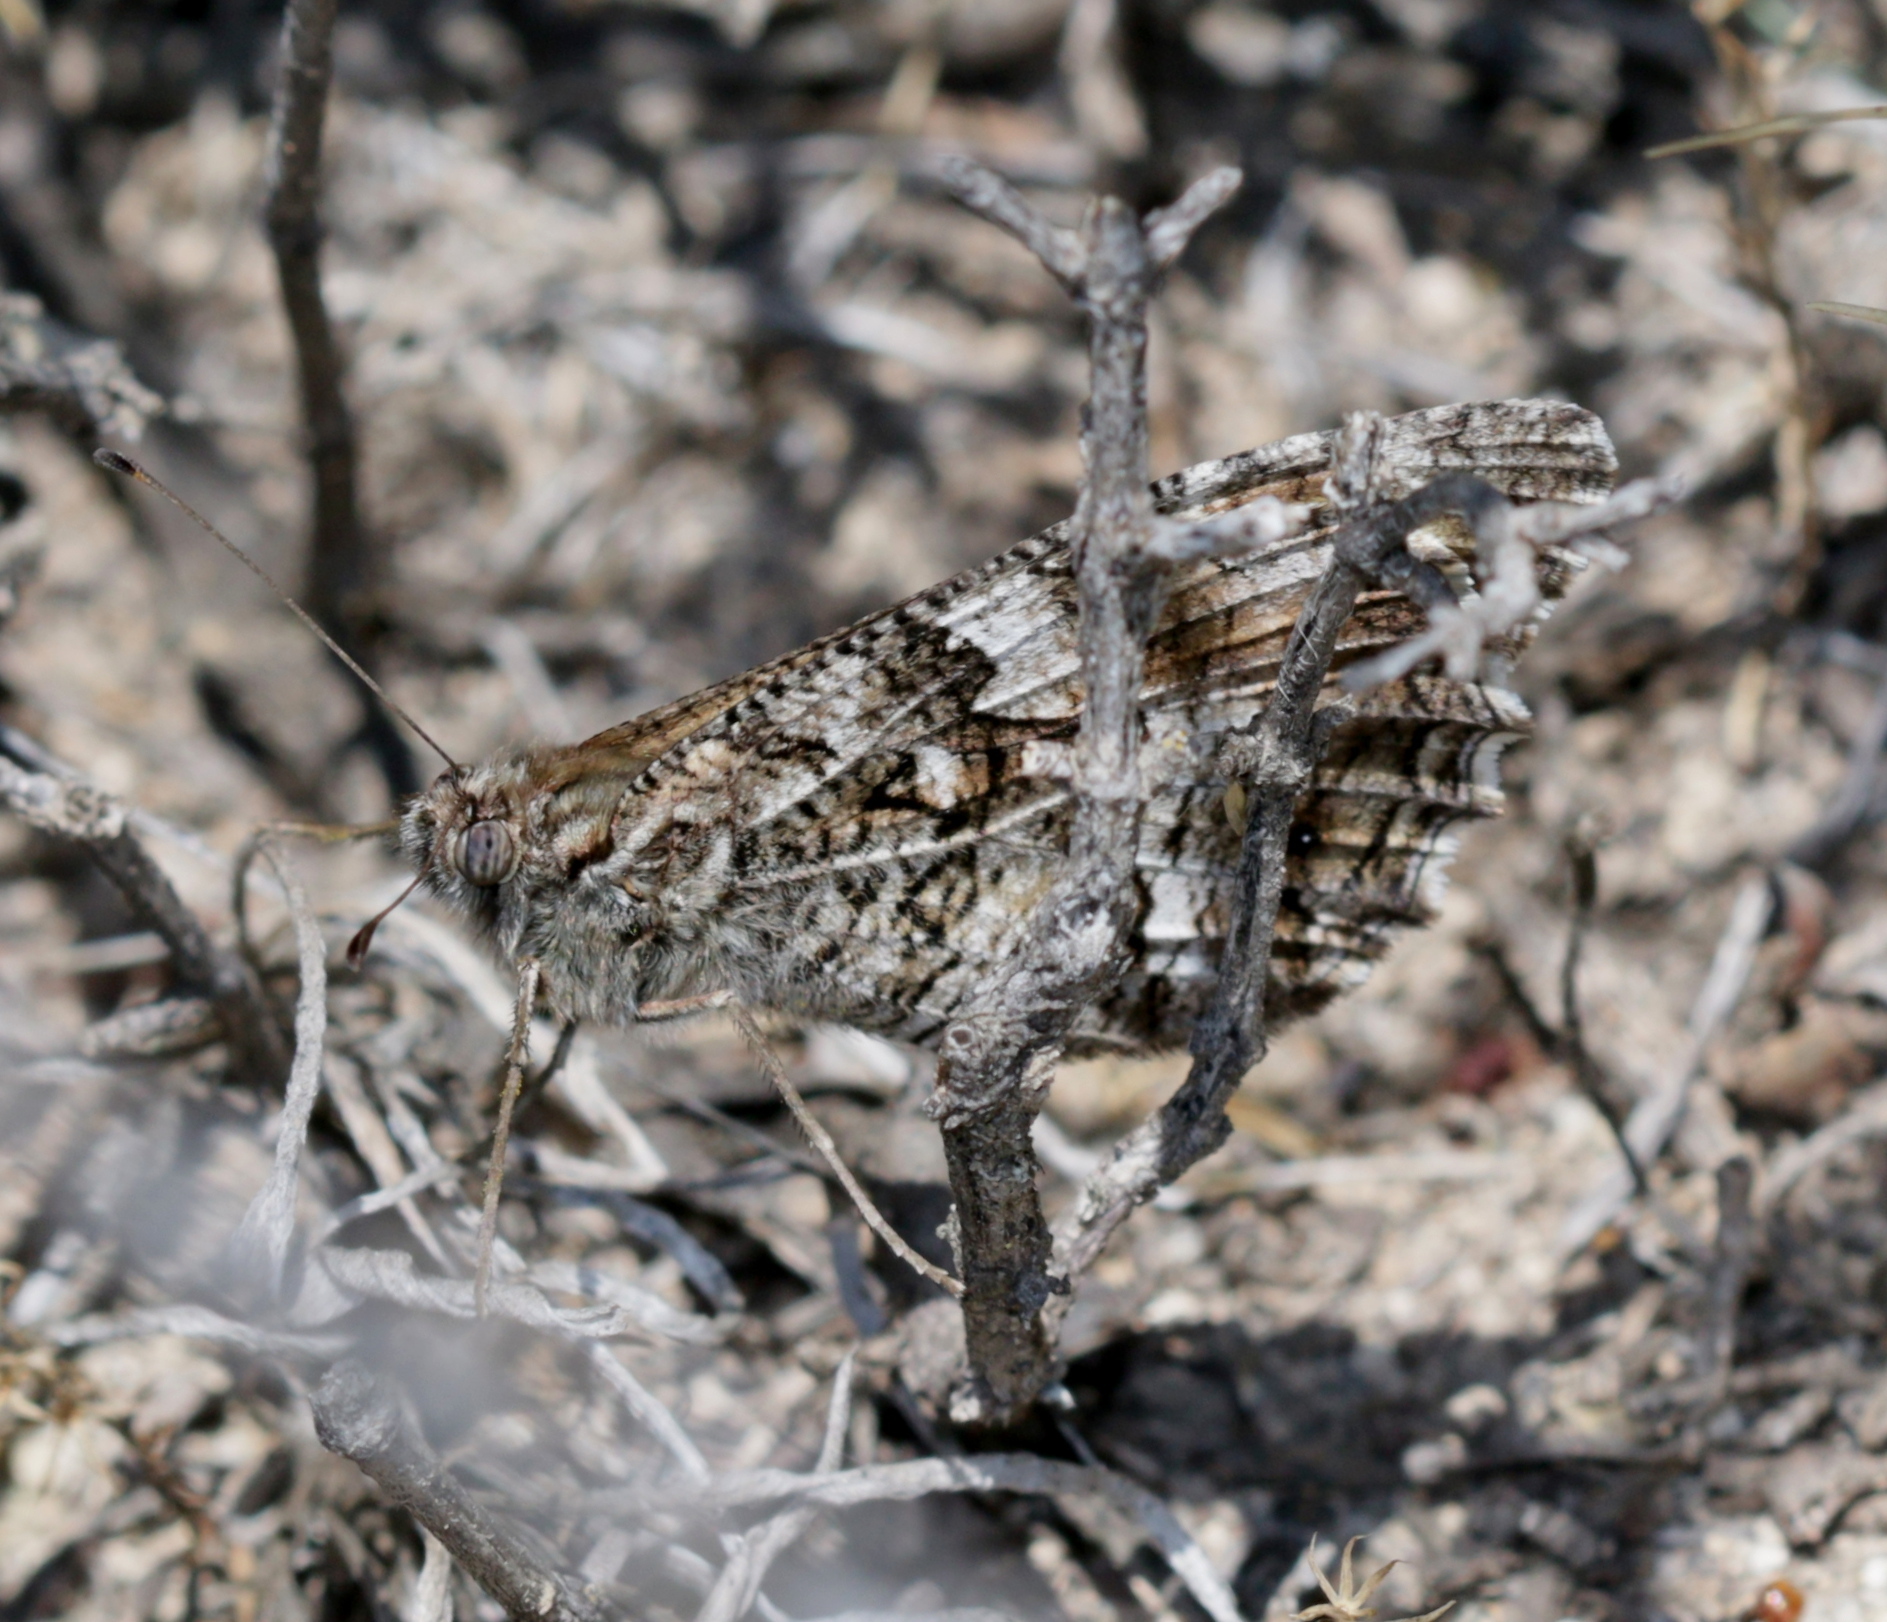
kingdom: Animalia
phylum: Arthropoda
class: Insecta
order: Lepidoptera
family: Nymphalidae
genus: Hipparchia
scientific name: Hipparchia semele
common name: Grayling
